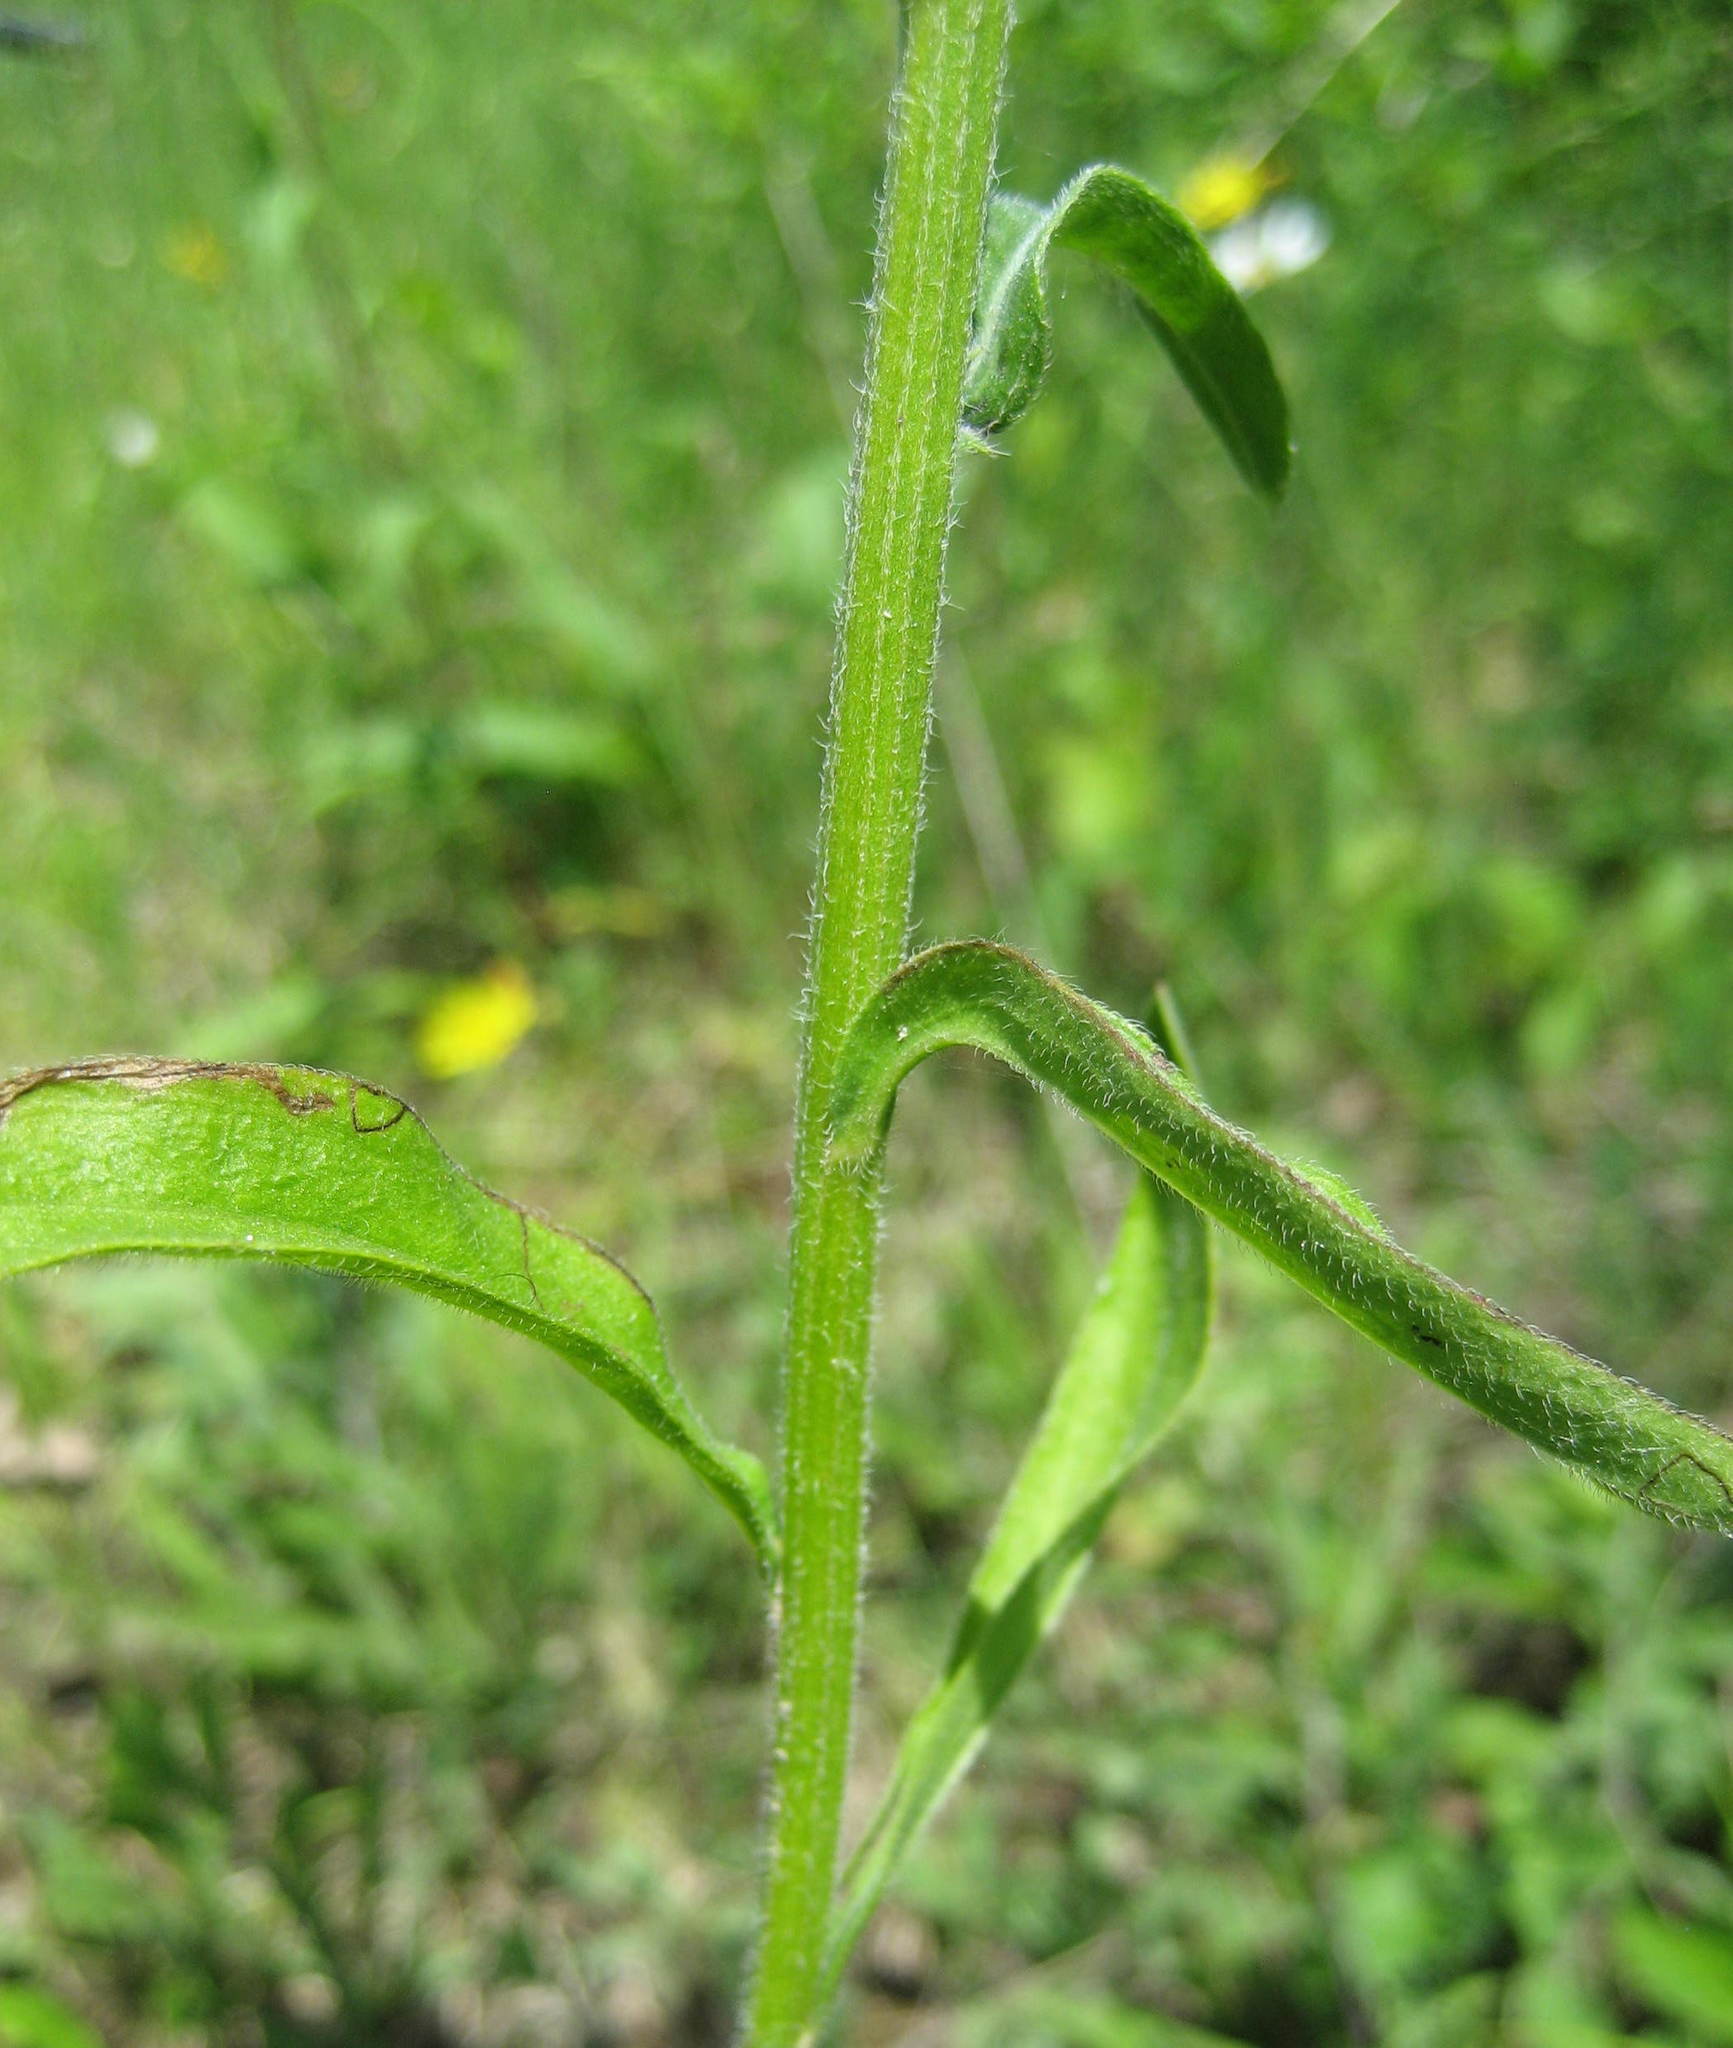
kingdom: Plantae
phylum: Tracheophyta
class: Magnoliopsida
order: Asterales
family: Asteraceae
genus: Erigeron
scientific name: Erigeron strigosus
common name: Common eastern fleabane
